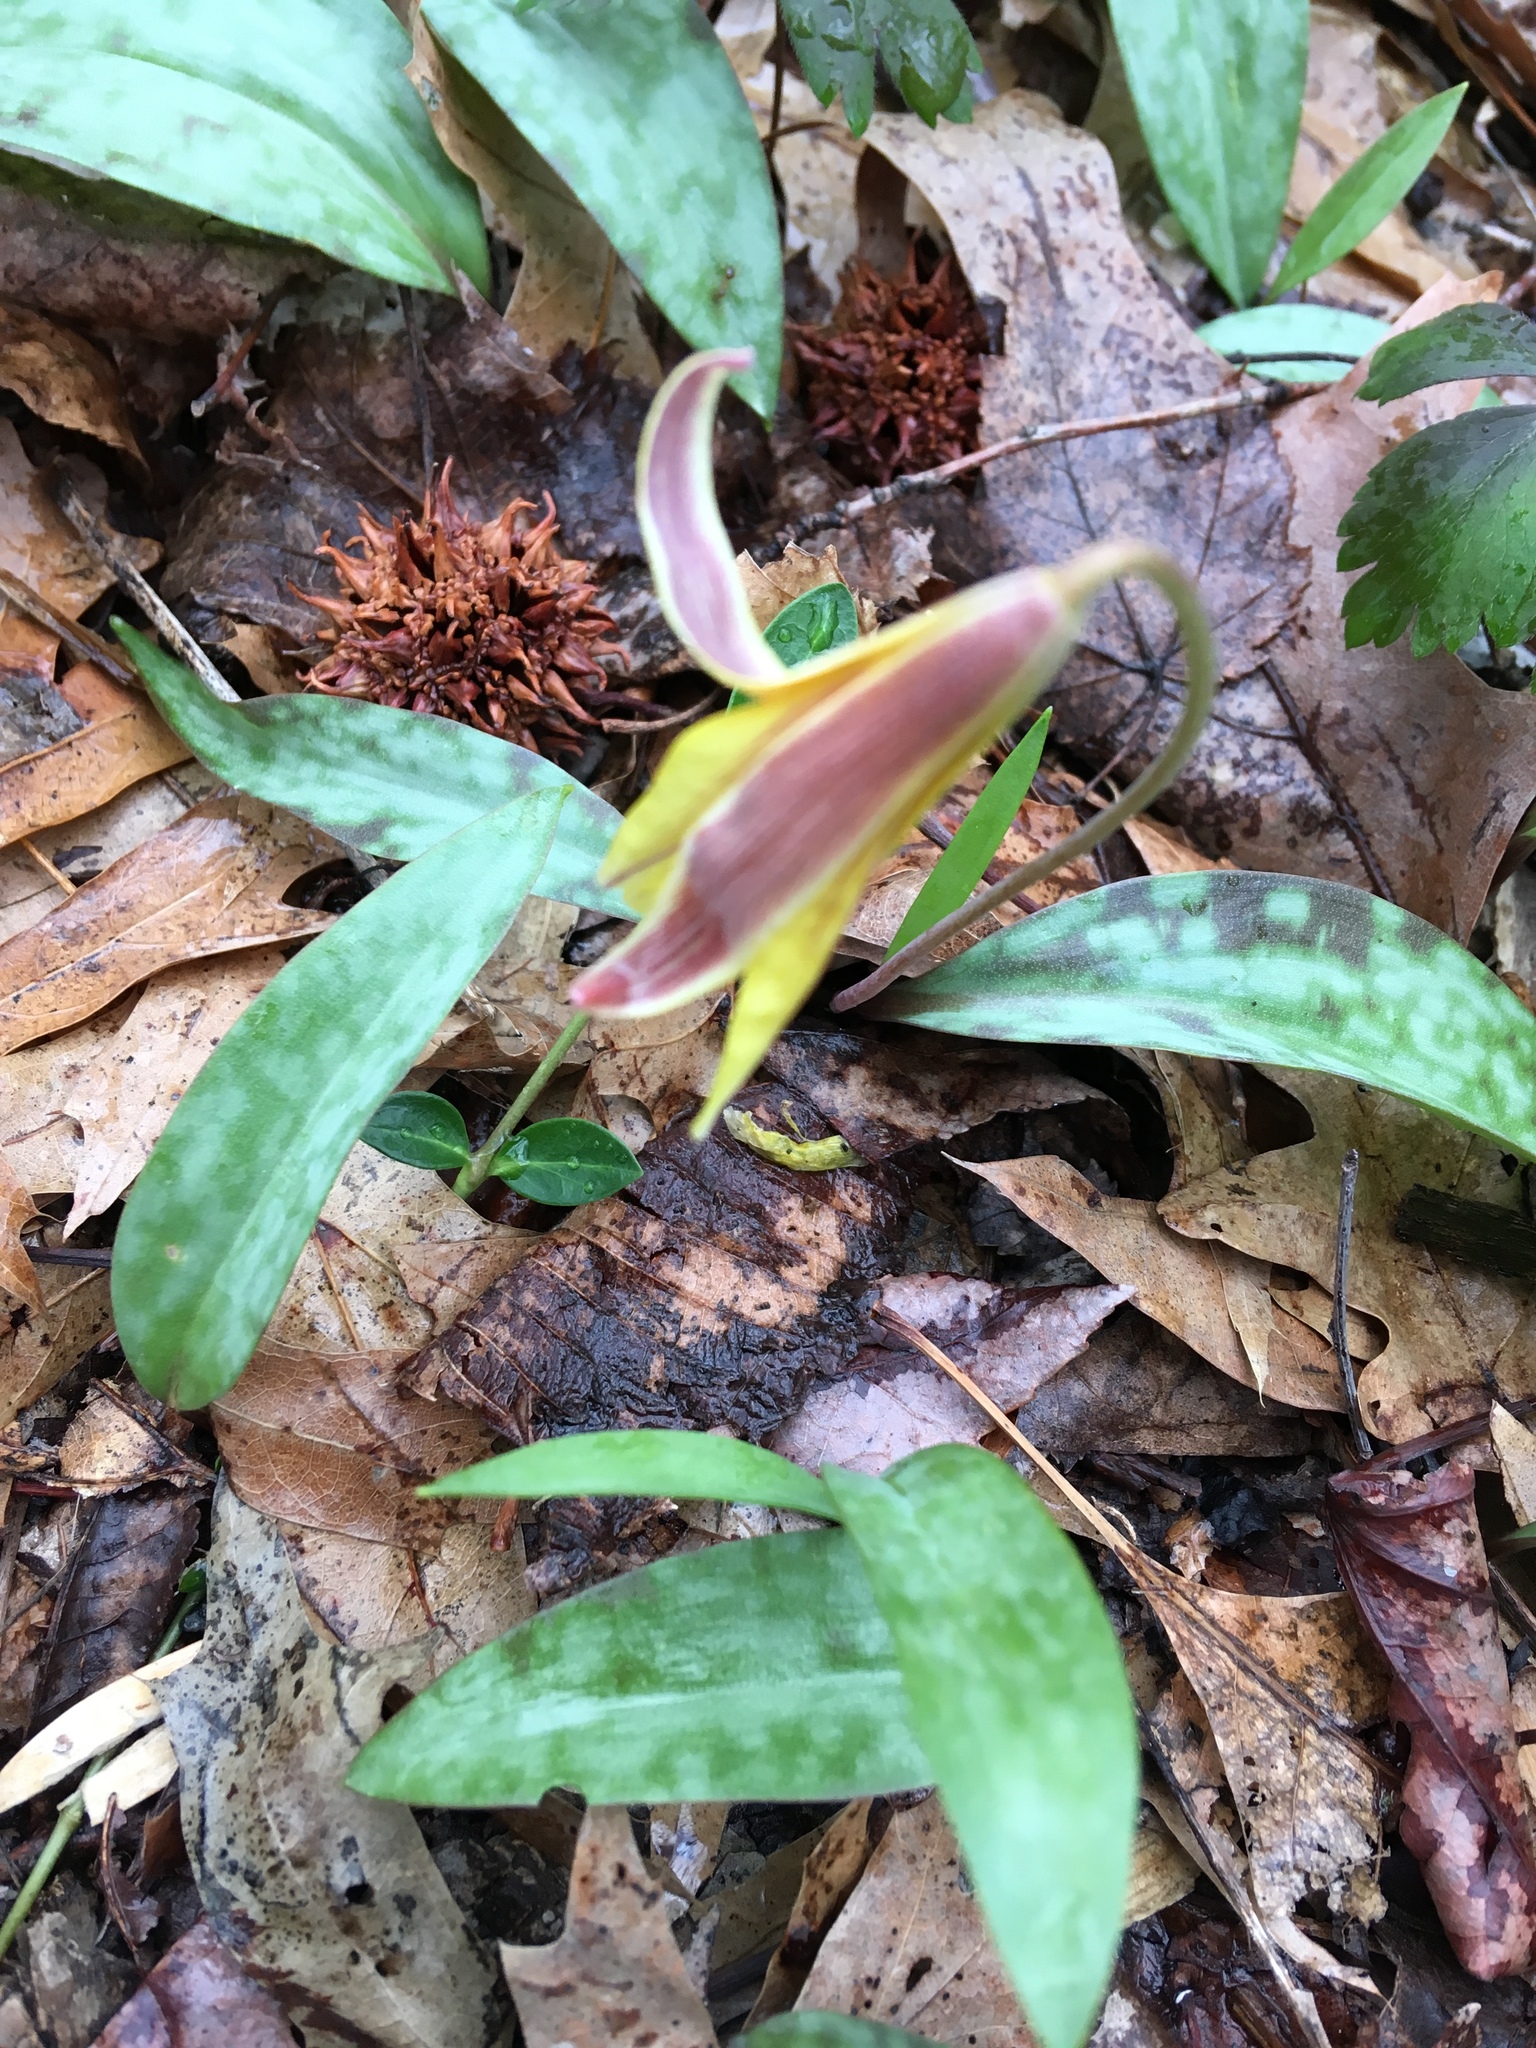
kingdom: Plantae
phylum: Tracheophyta
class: Liliopsida
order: Liliales
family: Liliaceae
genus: Erythronium
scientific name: Erythronium americanum
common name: Yellow adder's-tongue
